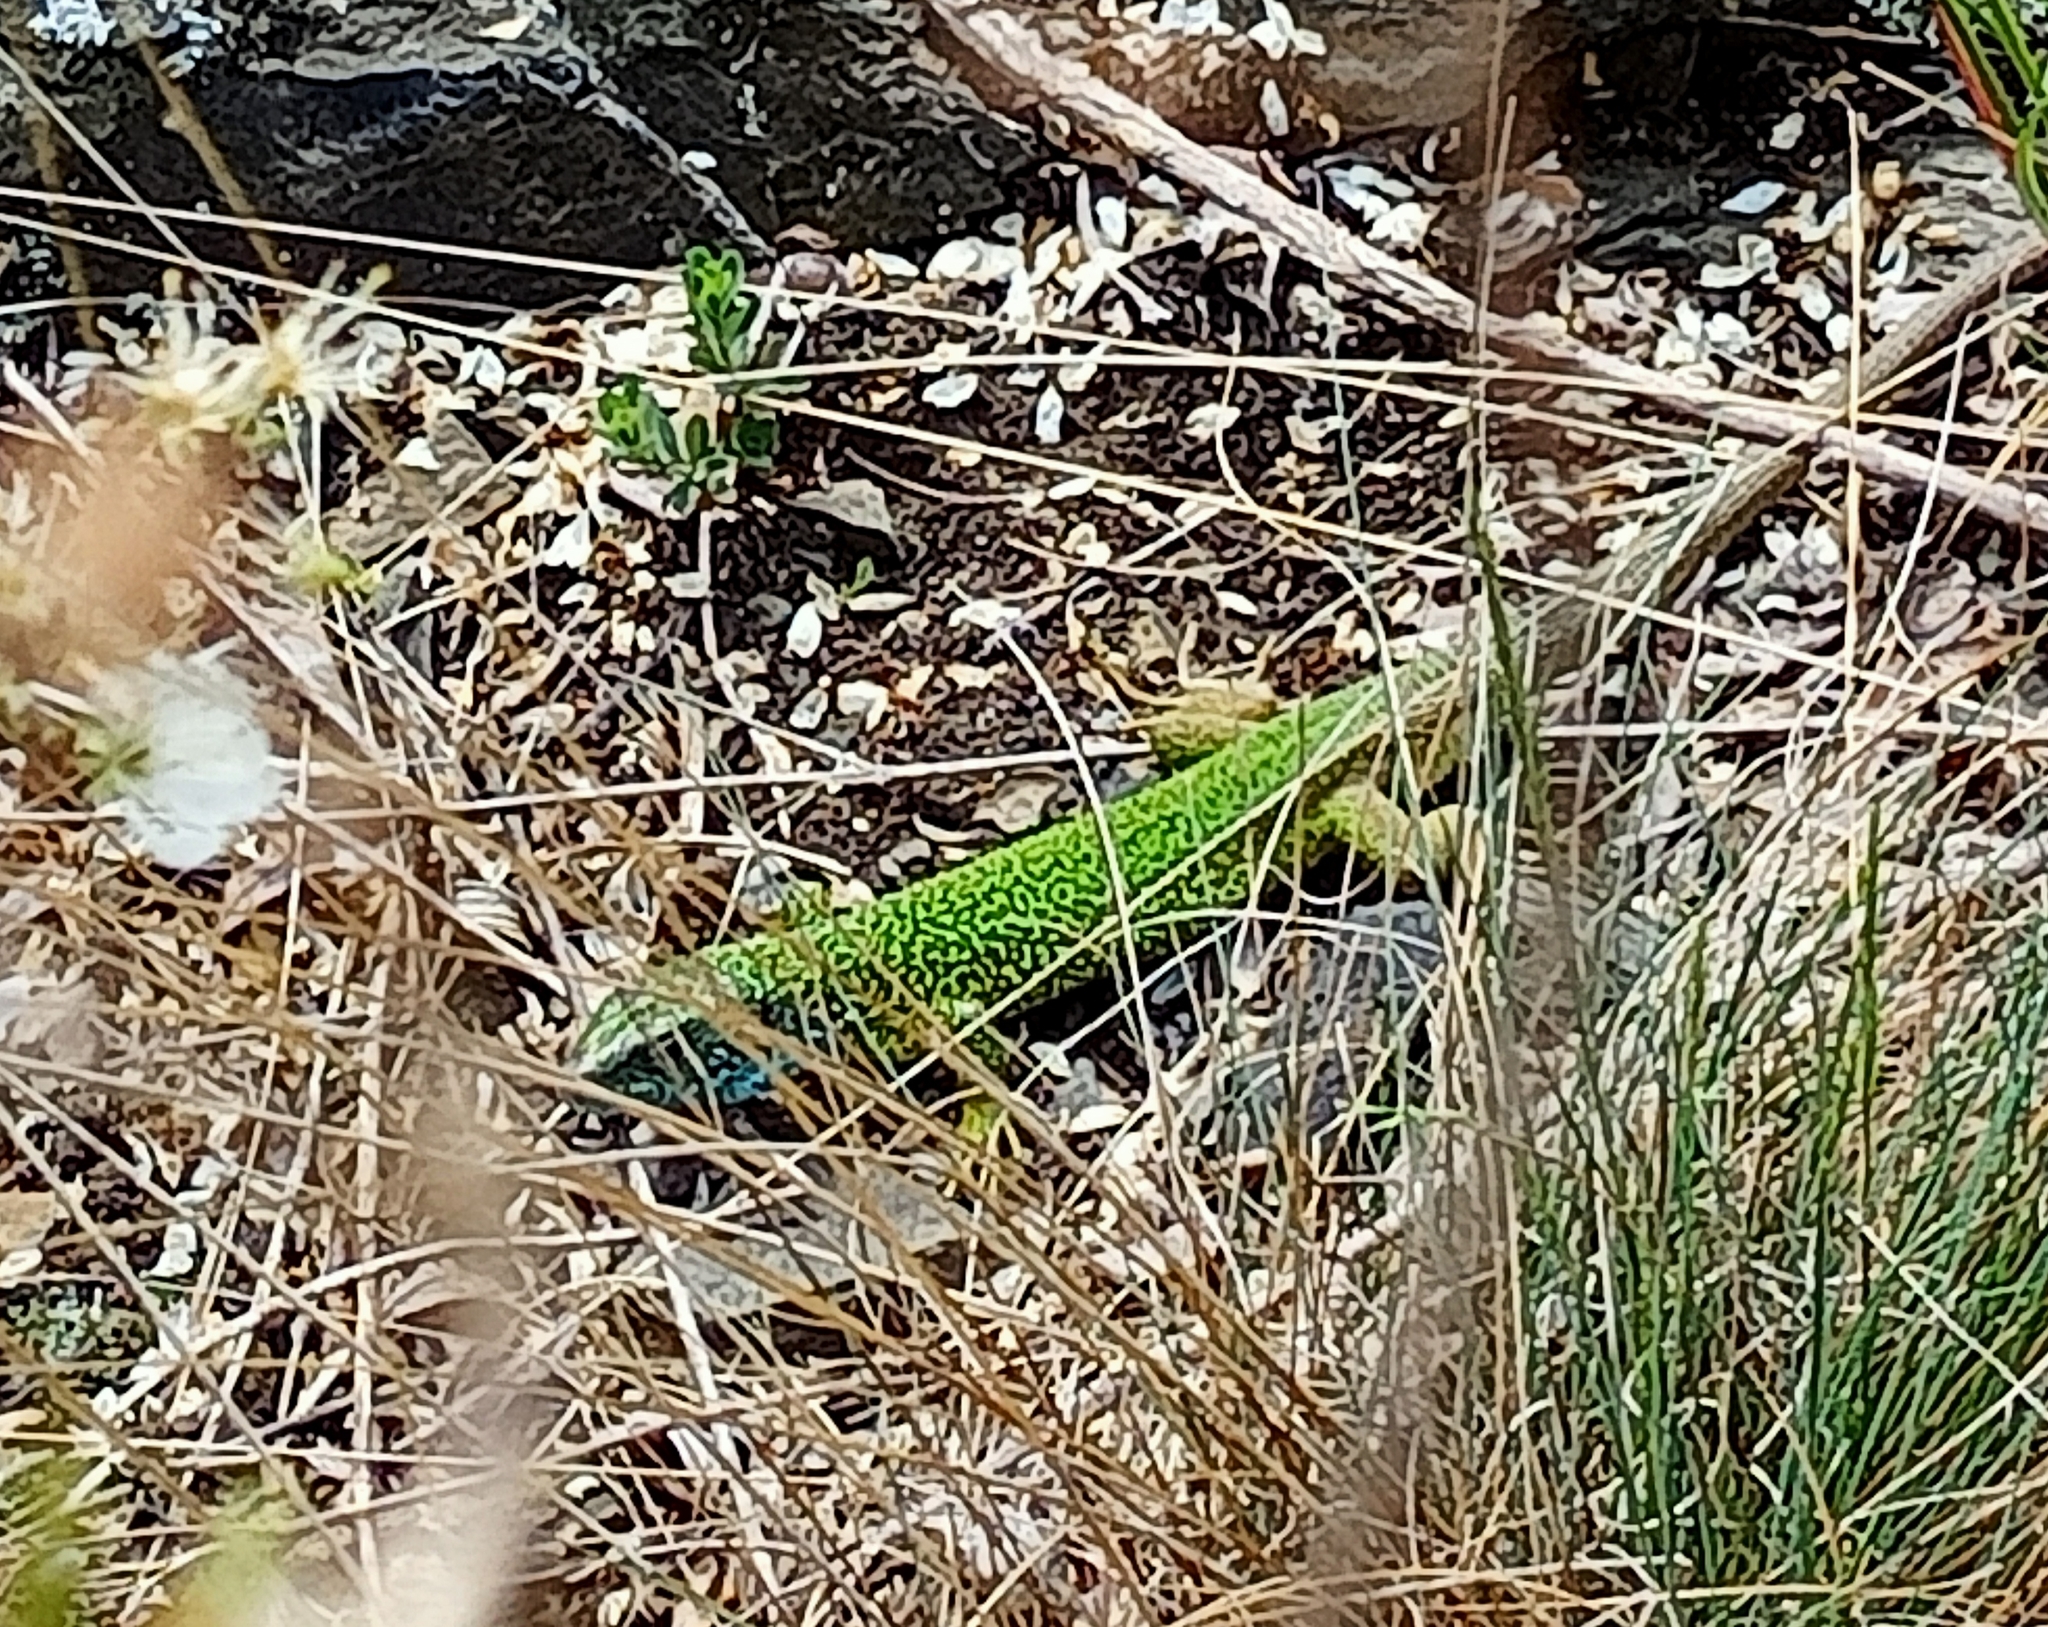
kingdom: Animalia
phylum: Chordata
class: Squamata
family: Lacertidae
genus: Lacerta
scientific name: Lacerta viridis
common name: European green lizard
